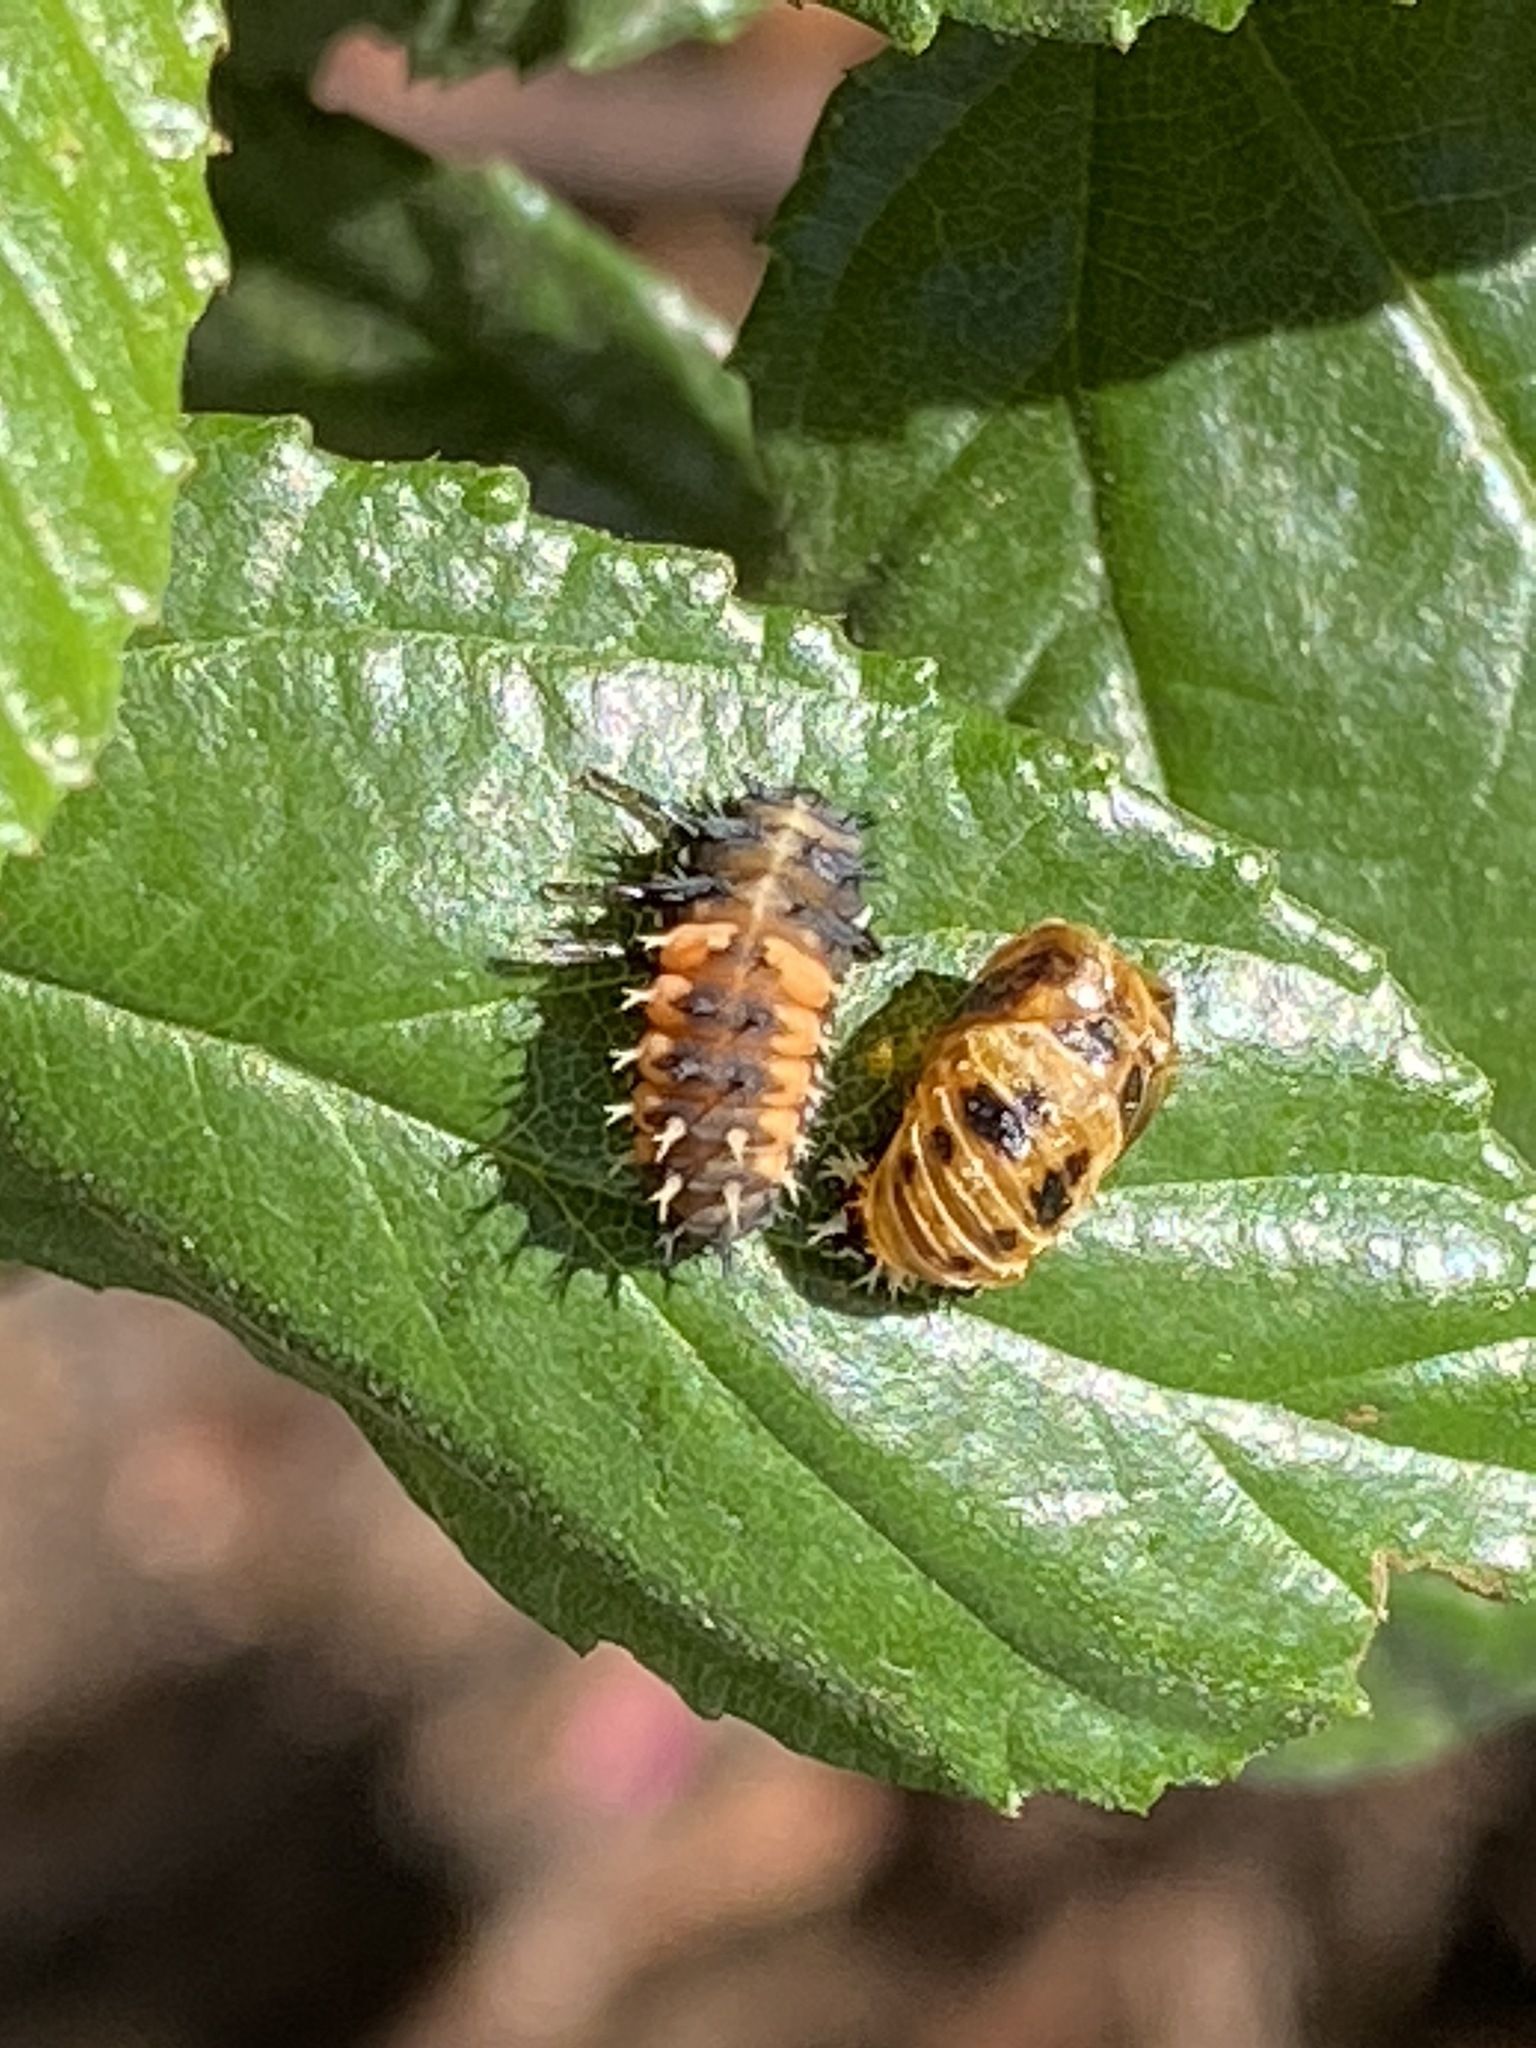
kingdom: Animalia
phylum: Arthropoda
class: Insecta
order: Coleoptera
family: Coccinellidae
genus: Harmonia
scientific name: Harmonia axyridis
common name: Harlequin ladybird
